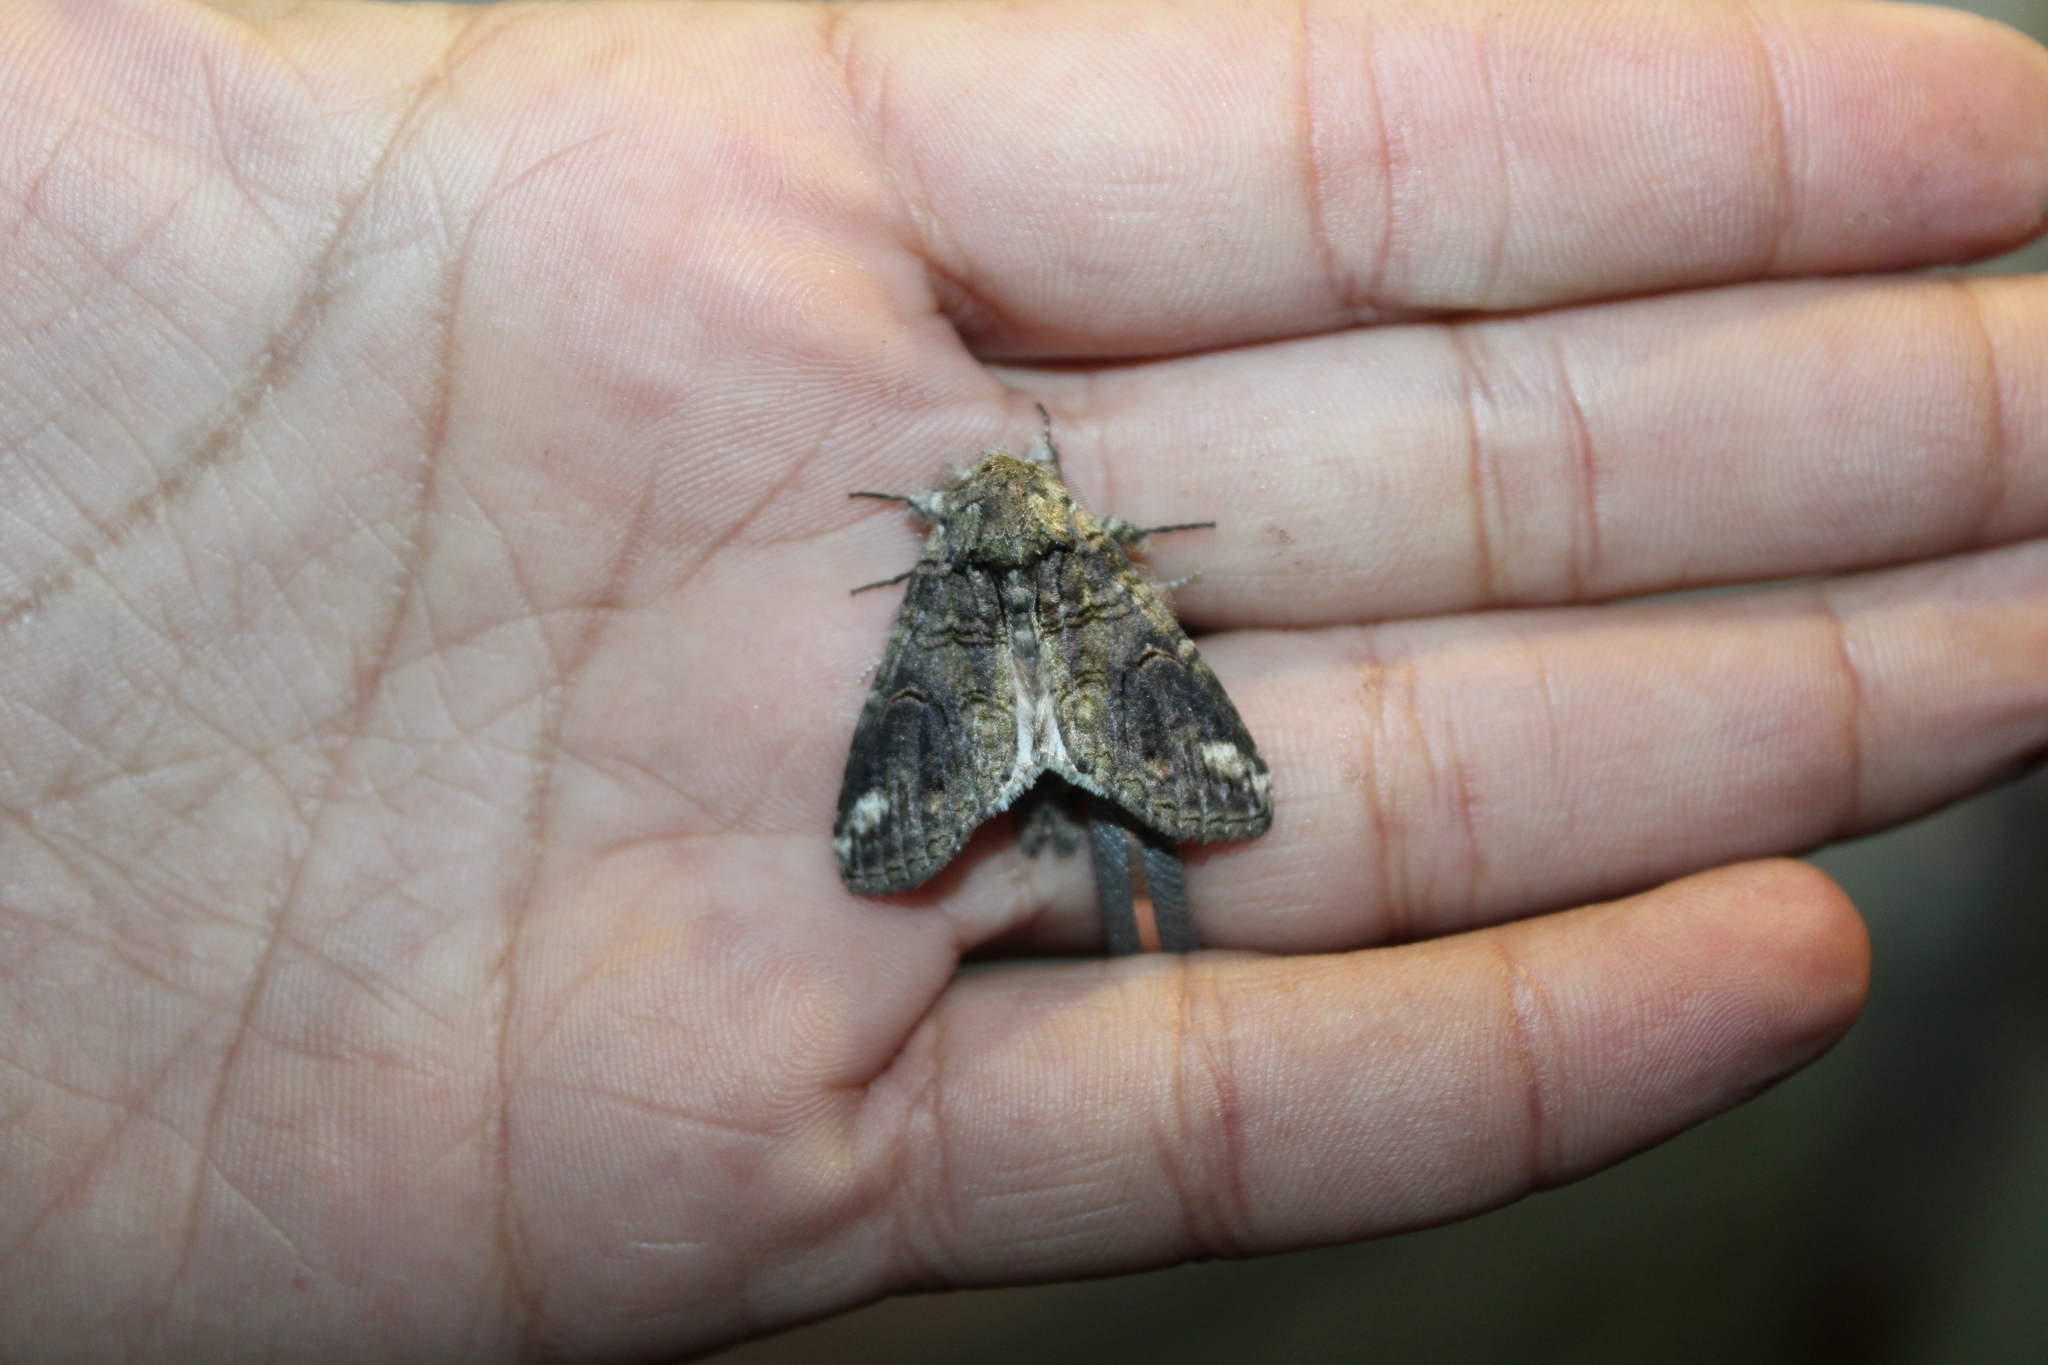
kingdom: Animalia
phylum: Arthropoda
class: Insecta
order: Lepidoptera
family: Notodontidae
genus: Heterocampa
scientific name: Heterocampa obliqua
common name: Oblique heterocampa
